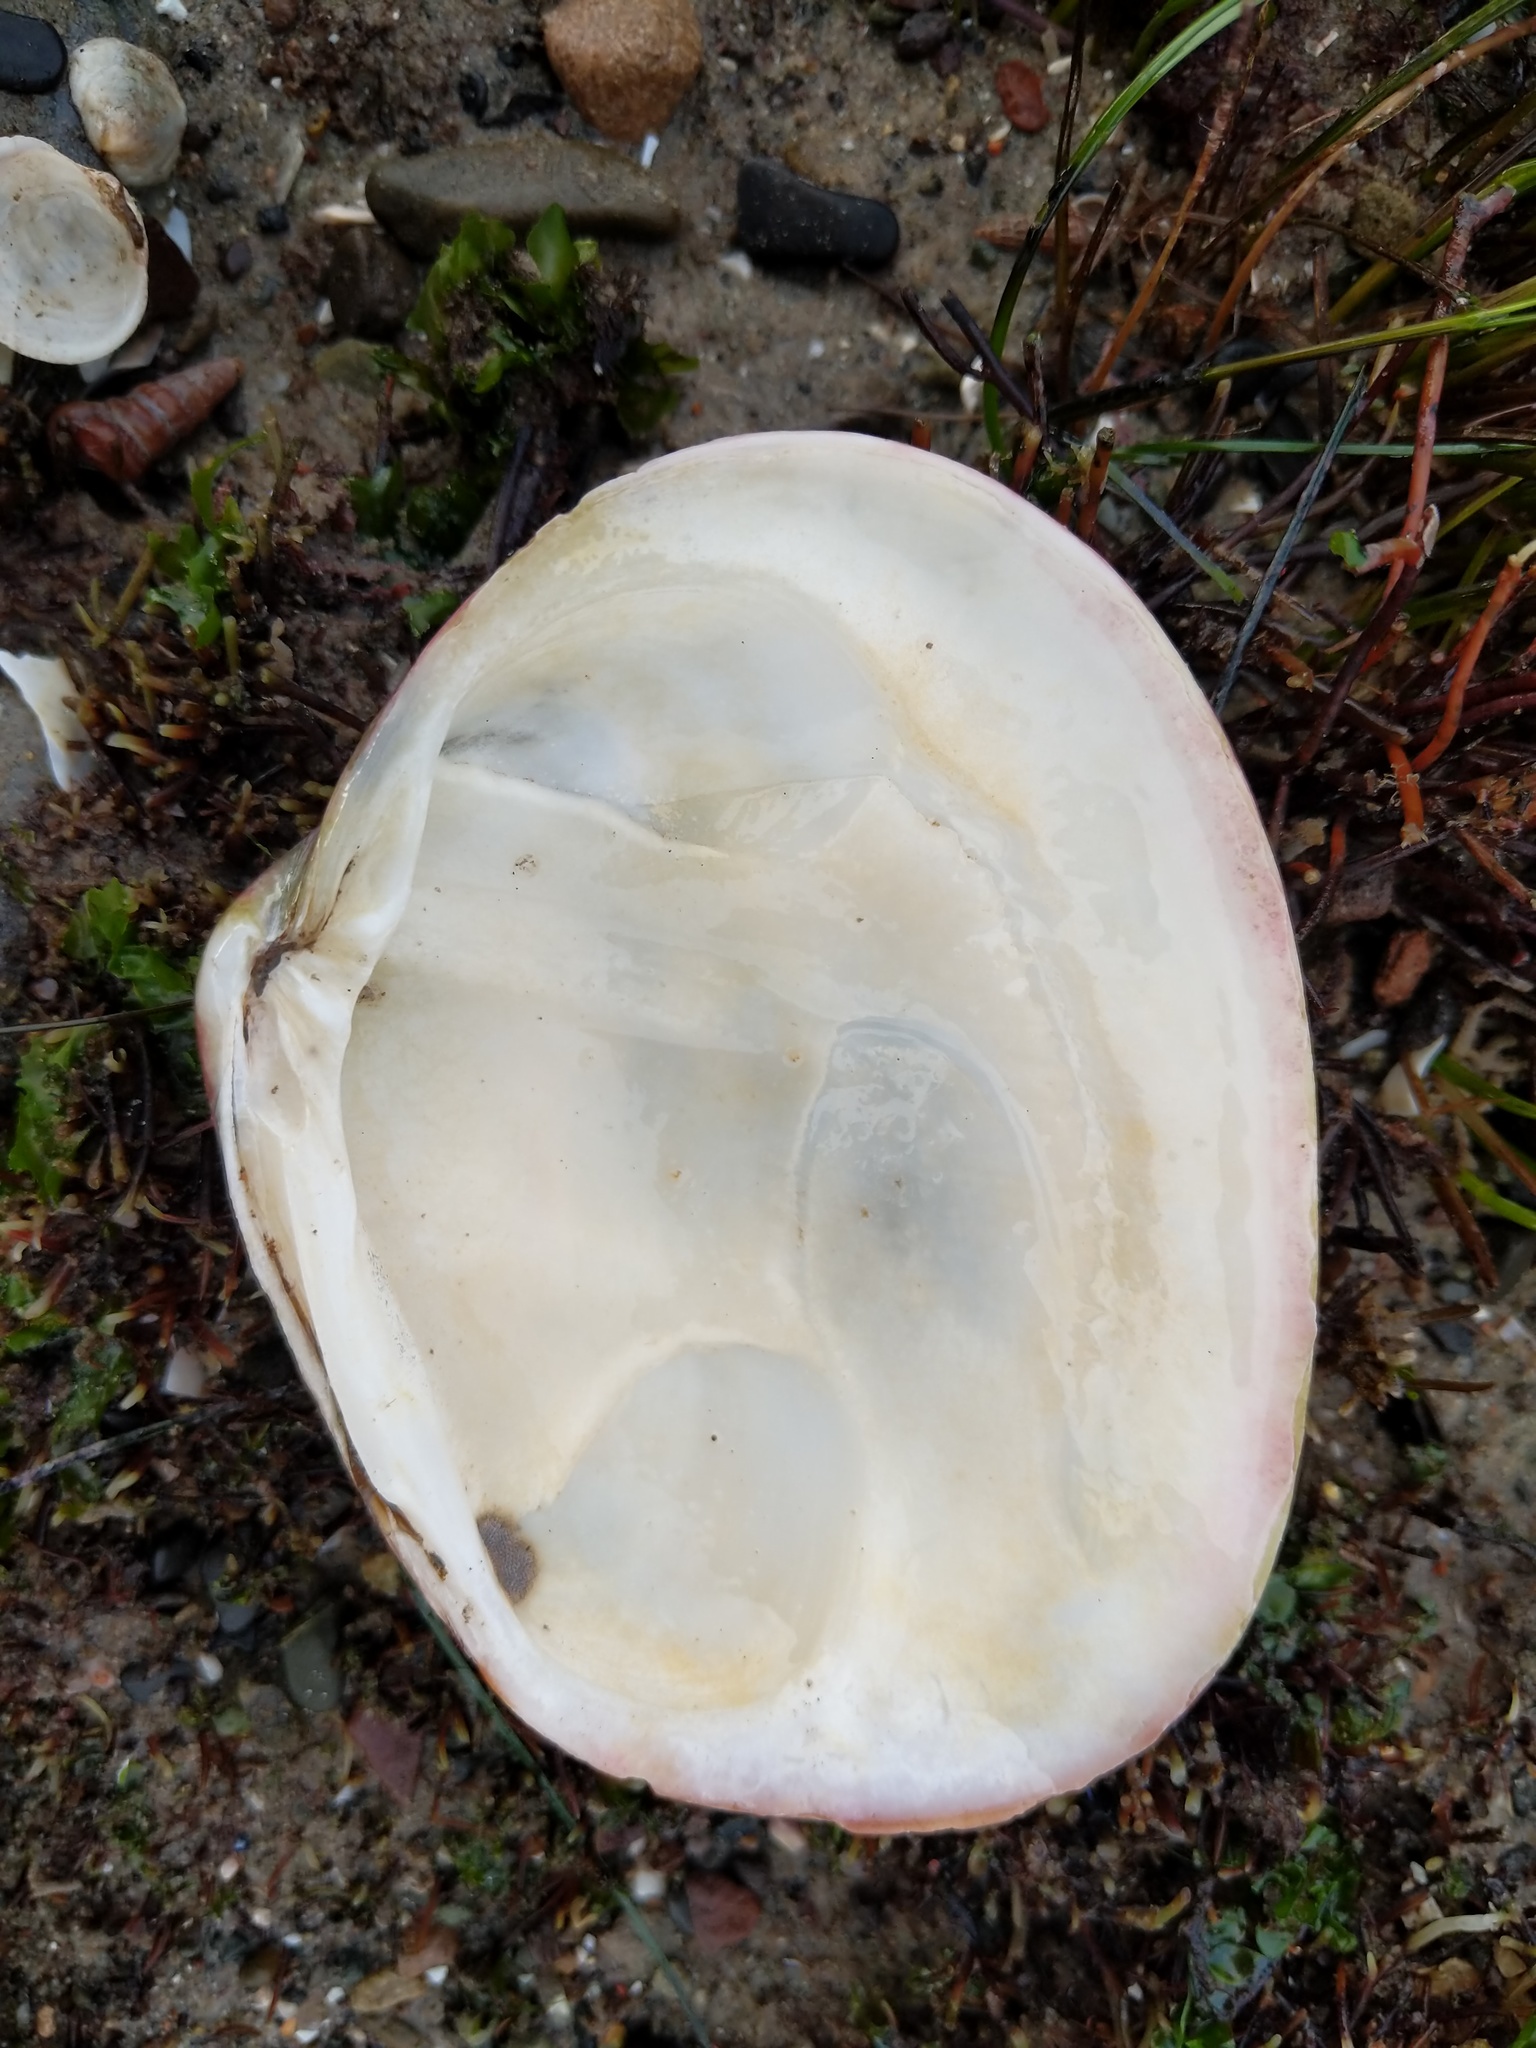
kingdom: Animalia
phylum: Mollusca
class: Bivalvia
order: Venerida
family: Veneridae
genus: Saxidomus
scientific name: Saxidomus nuttalli
